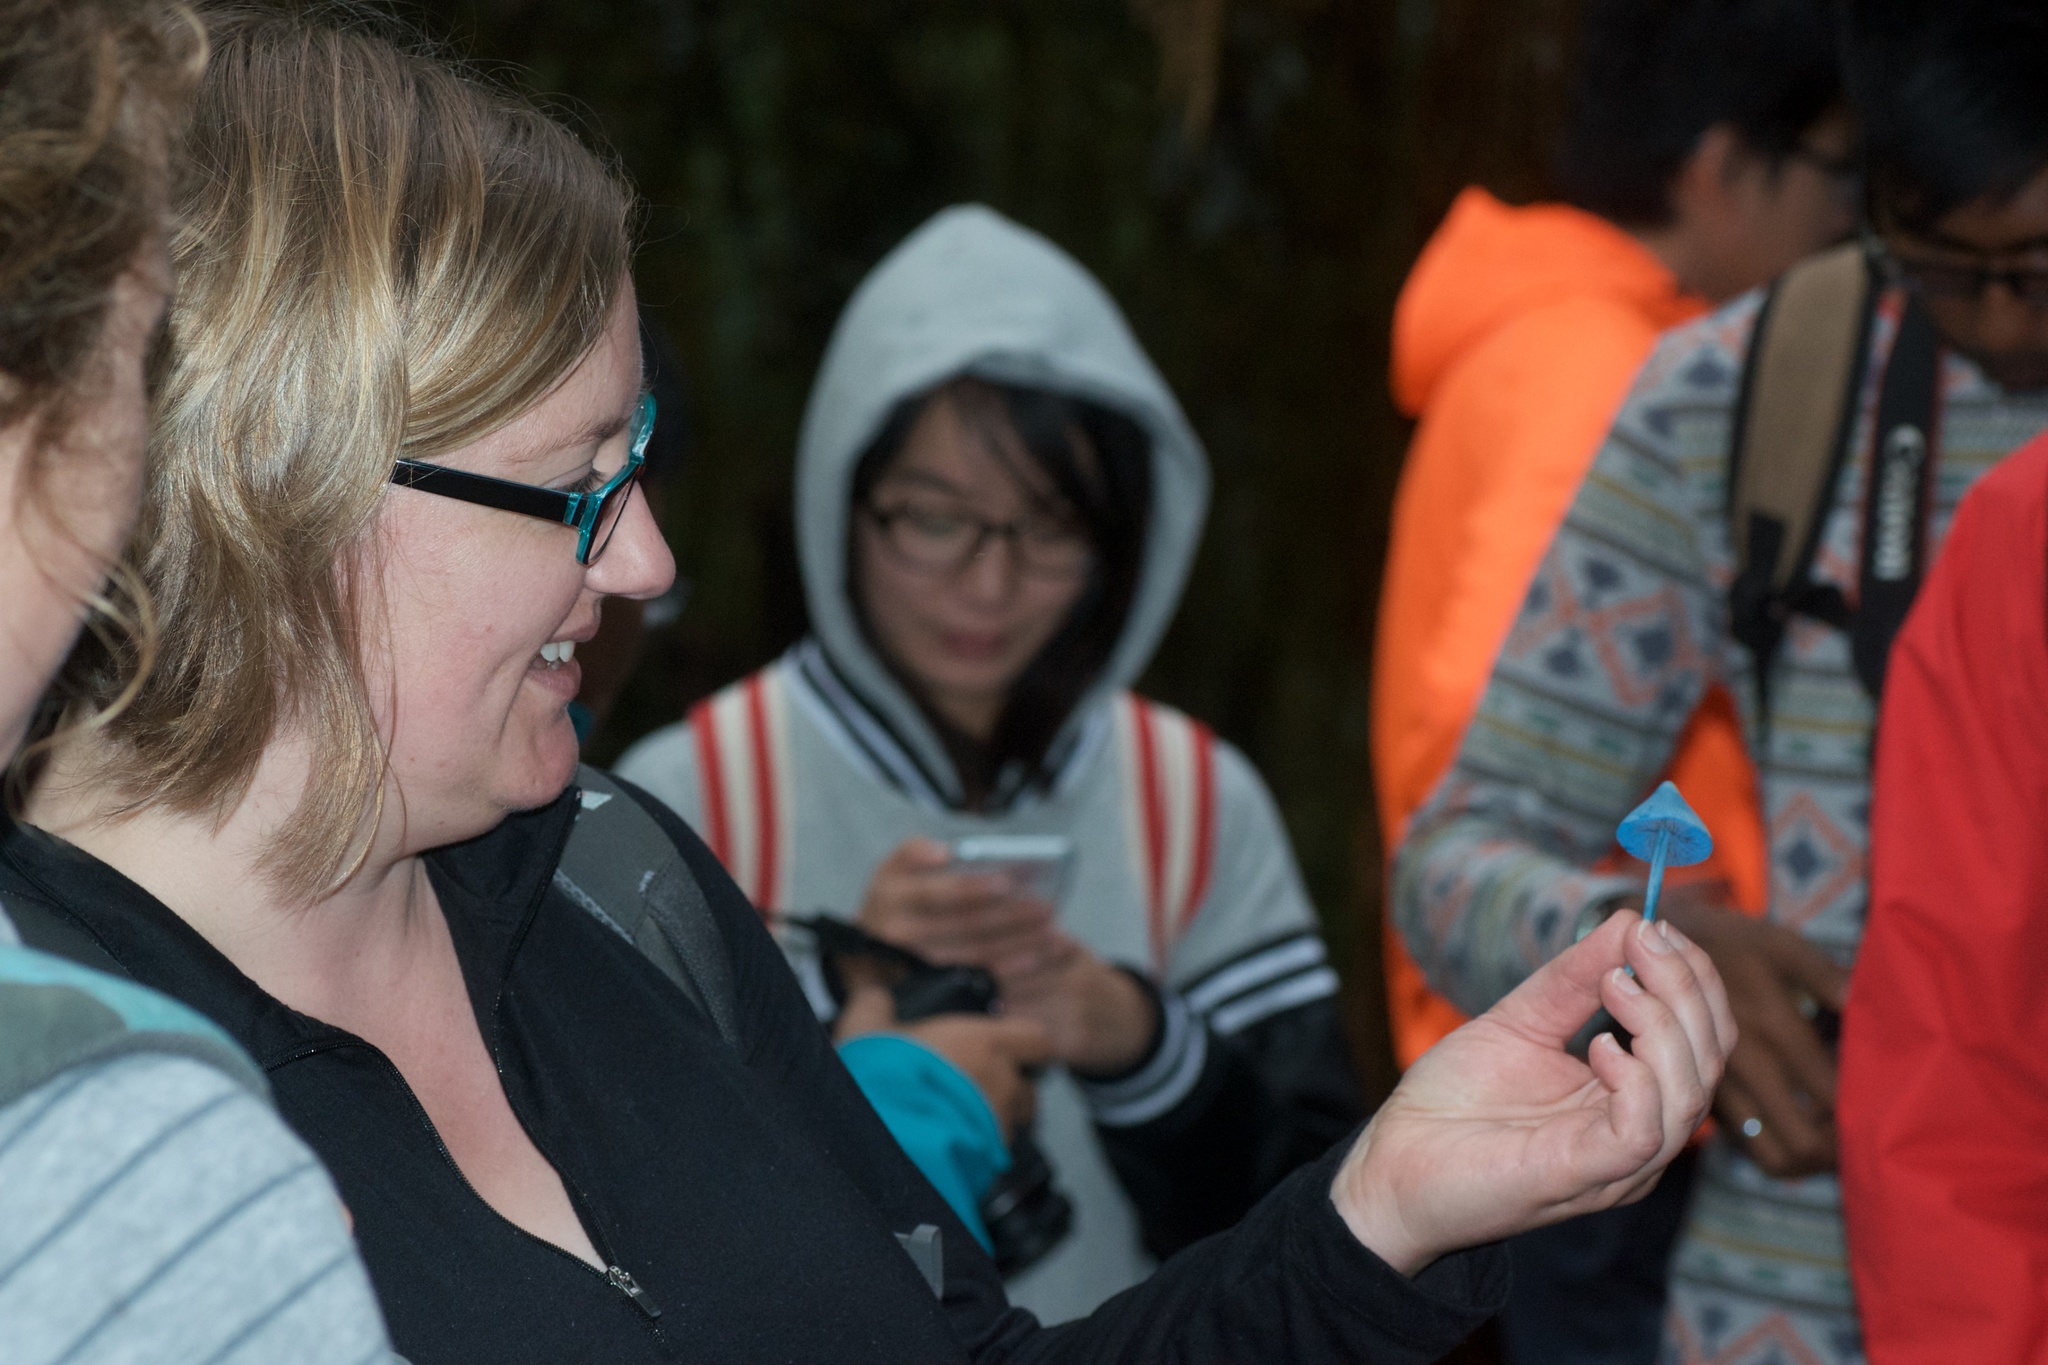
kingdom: Fungi
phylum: Basidiomycota
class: Agaricomycetes
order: Agaricales
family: Entolomataceae
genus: Entoloma
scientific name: Entoloma hochstetteri
